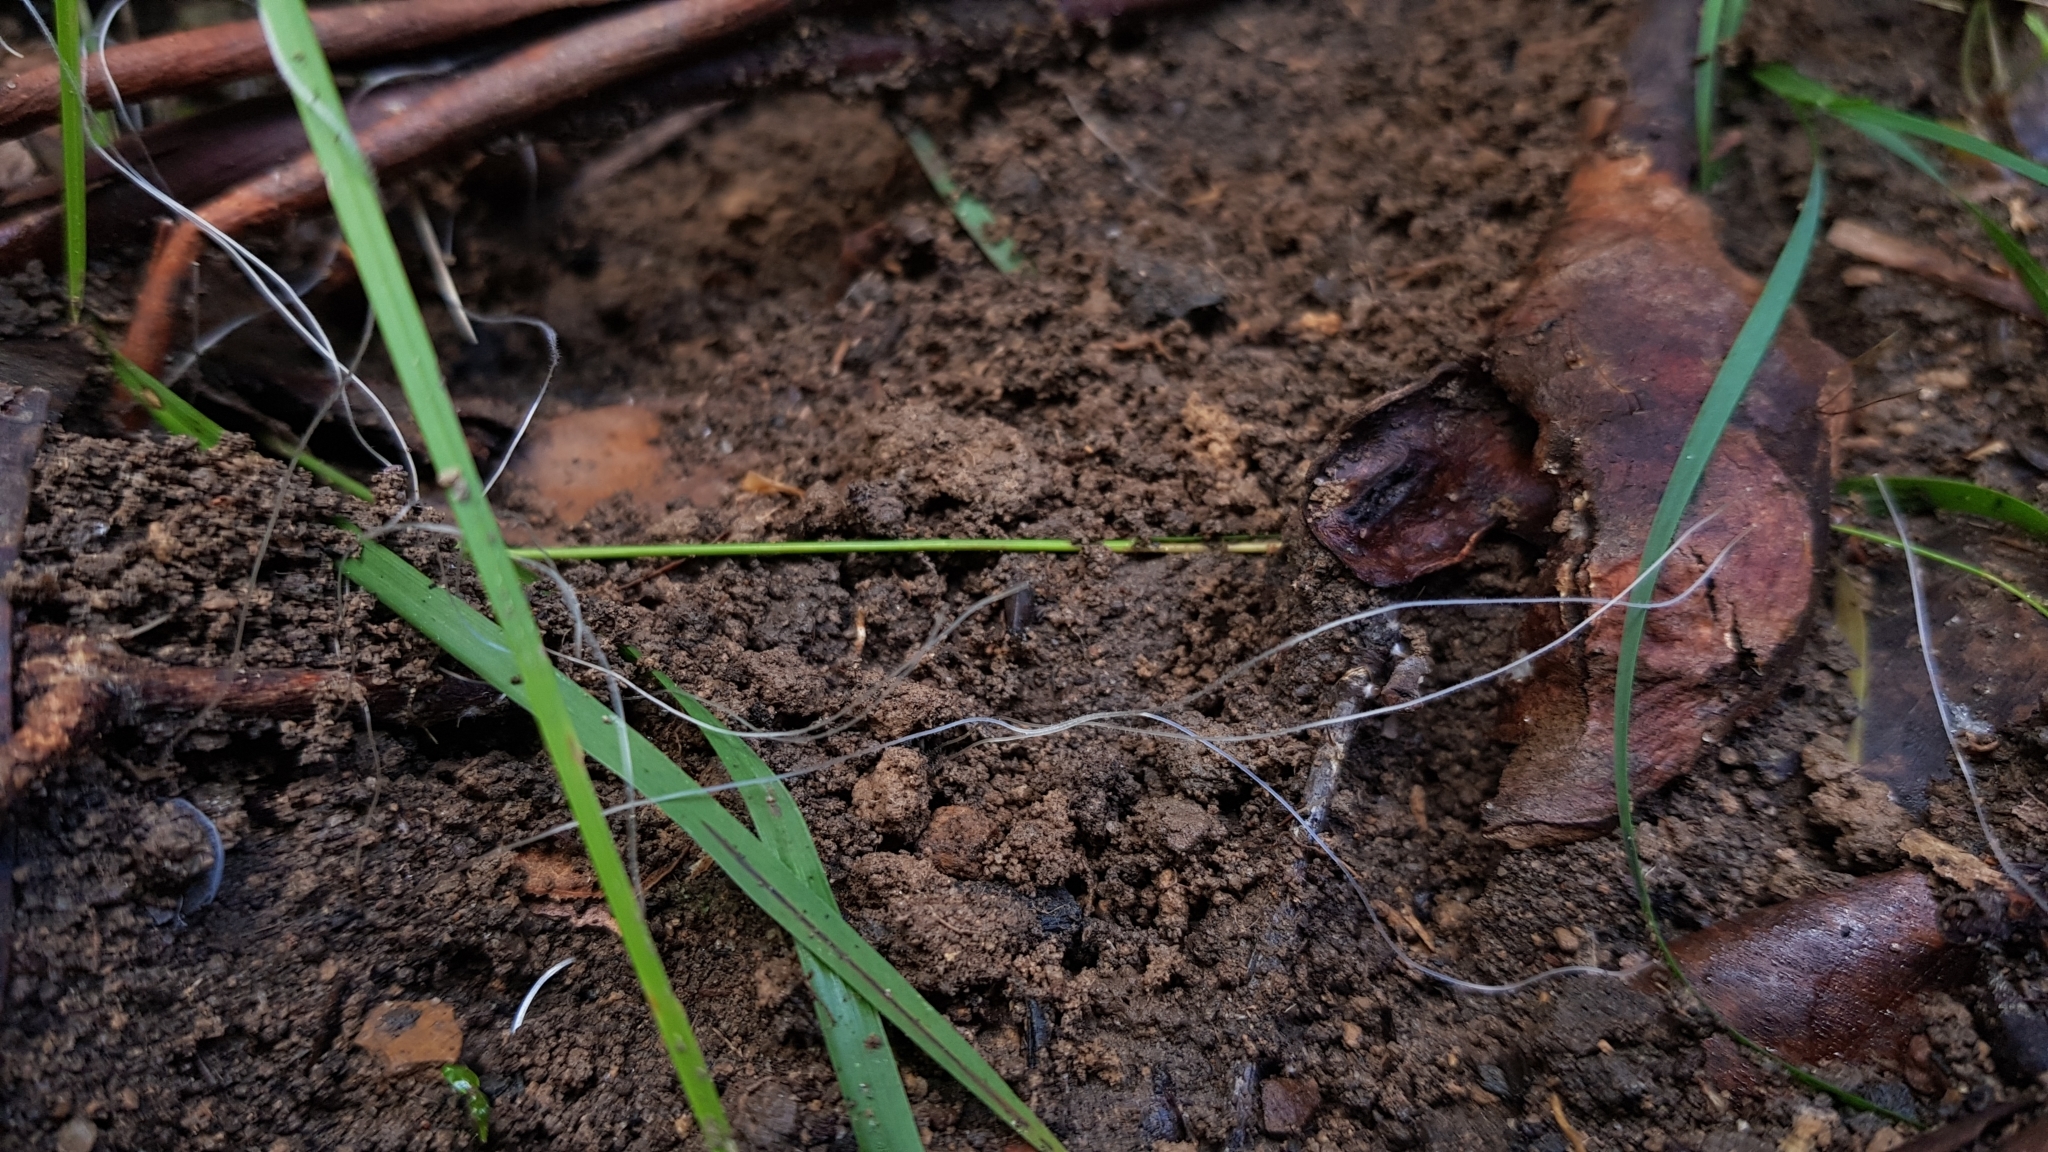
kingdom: Fungi
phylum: Basidiomycota
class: Agaricomycetes
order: Agaricales
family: Mycenaceae
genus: Mycena
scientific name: Mycena cystidiosa
